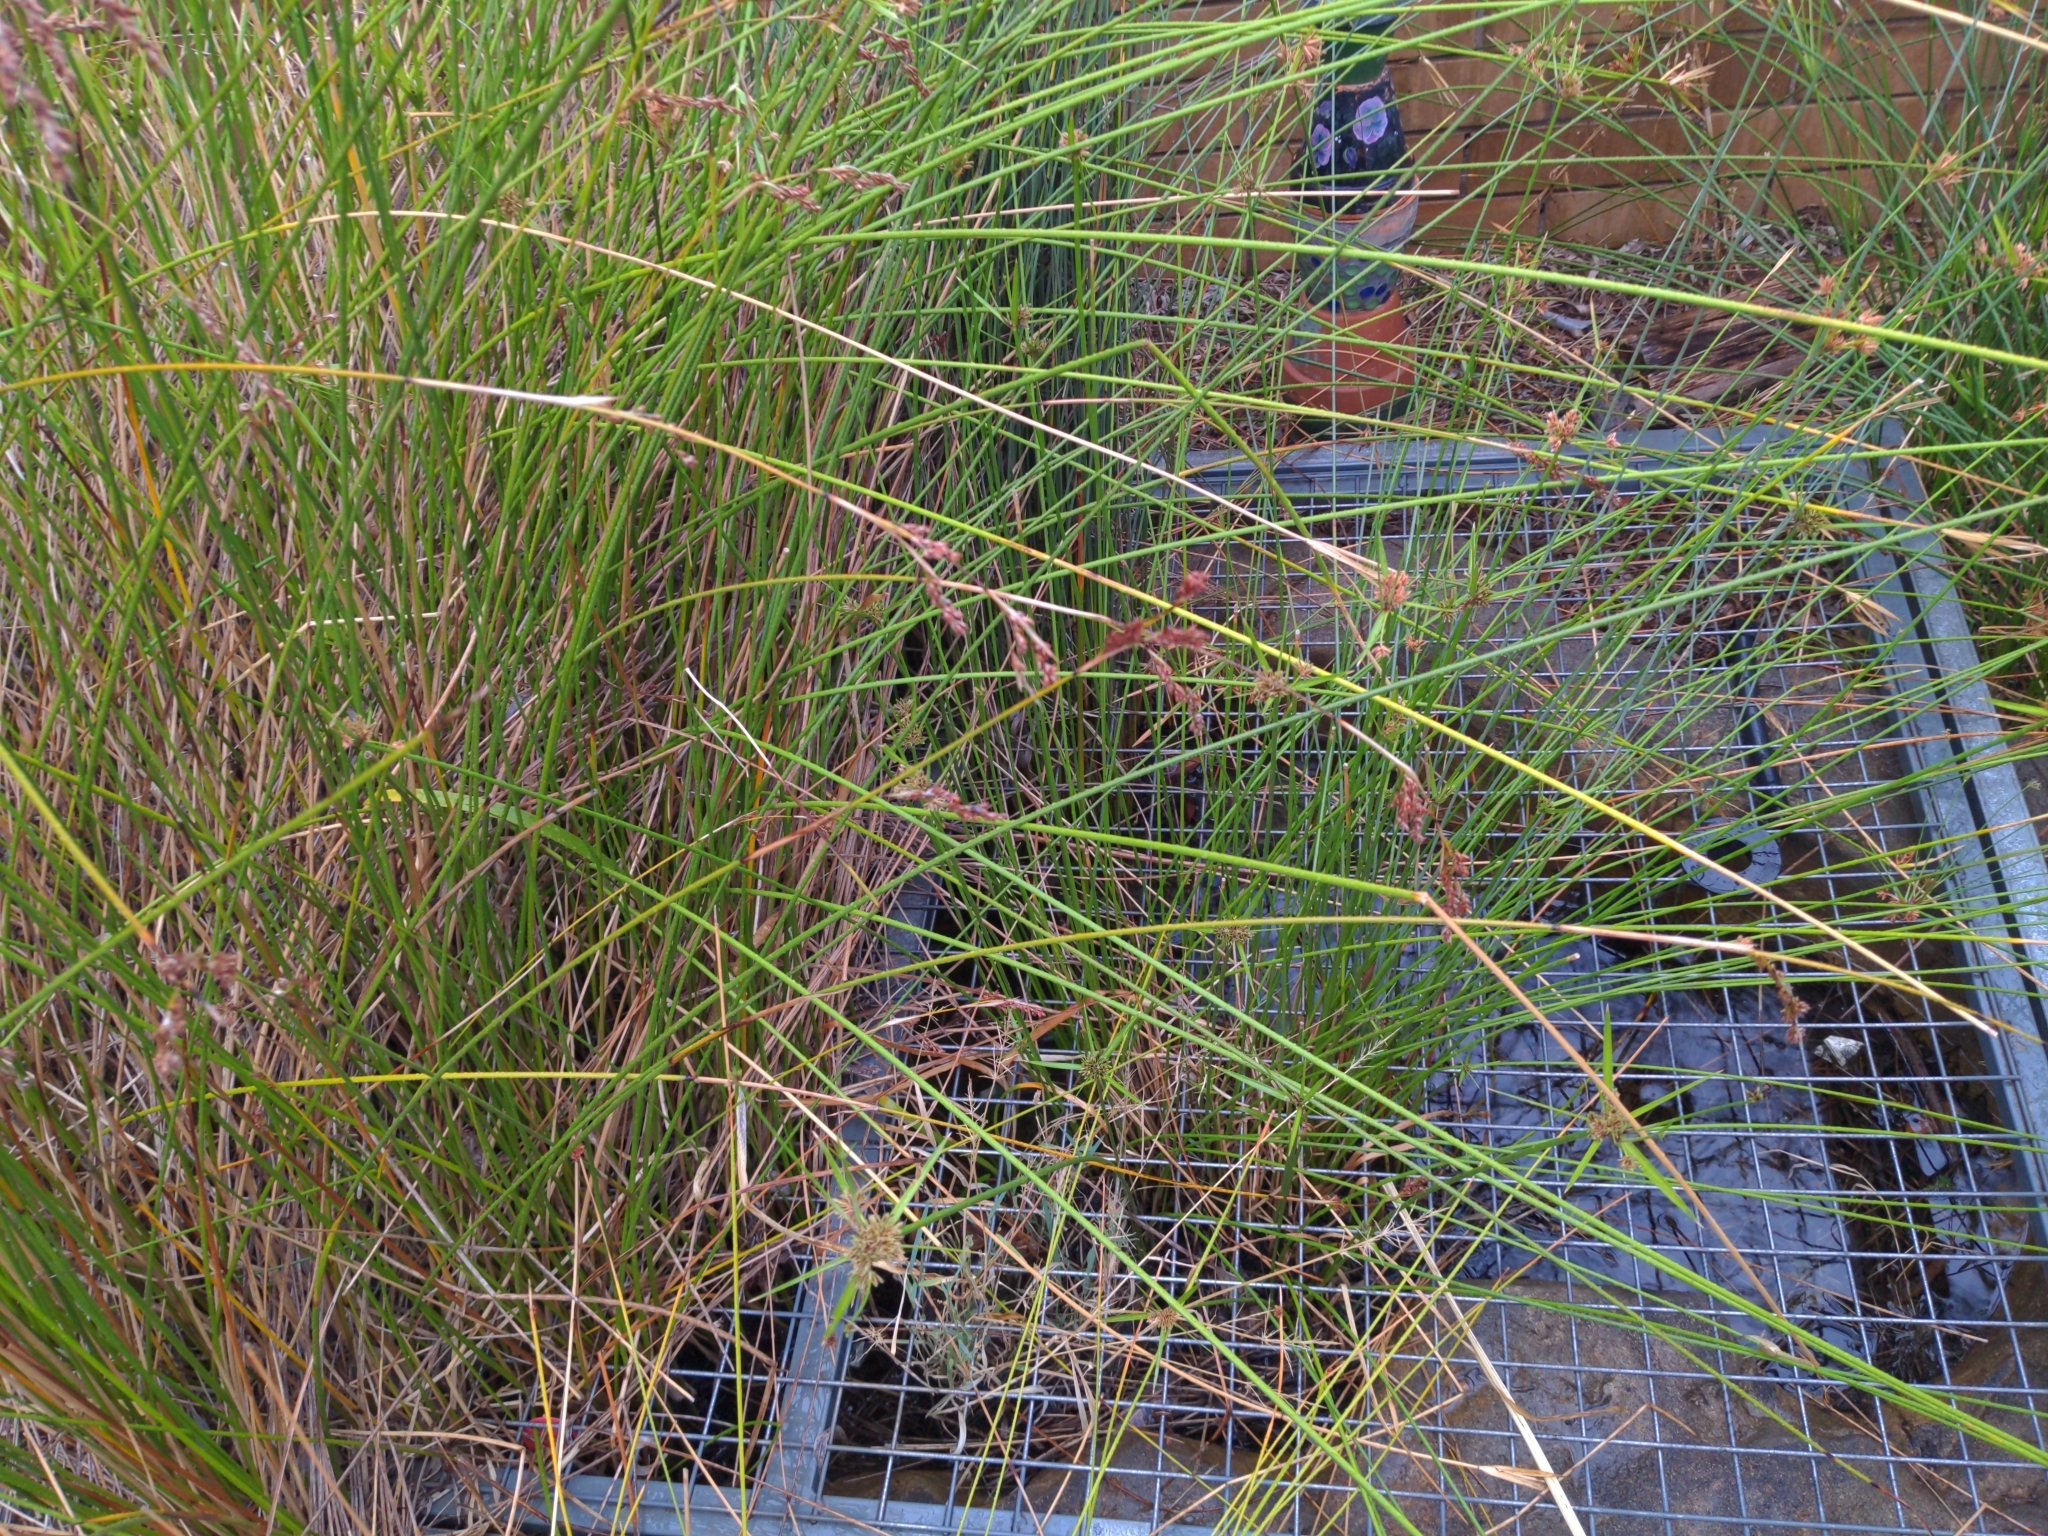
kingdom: Animalia
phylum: Chordata
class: Amphibia
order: Anura
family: Limnodynastidae
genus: Limnodynastes
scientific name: Limnodynastes tasmaniensis
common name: Spotted marsh frog
